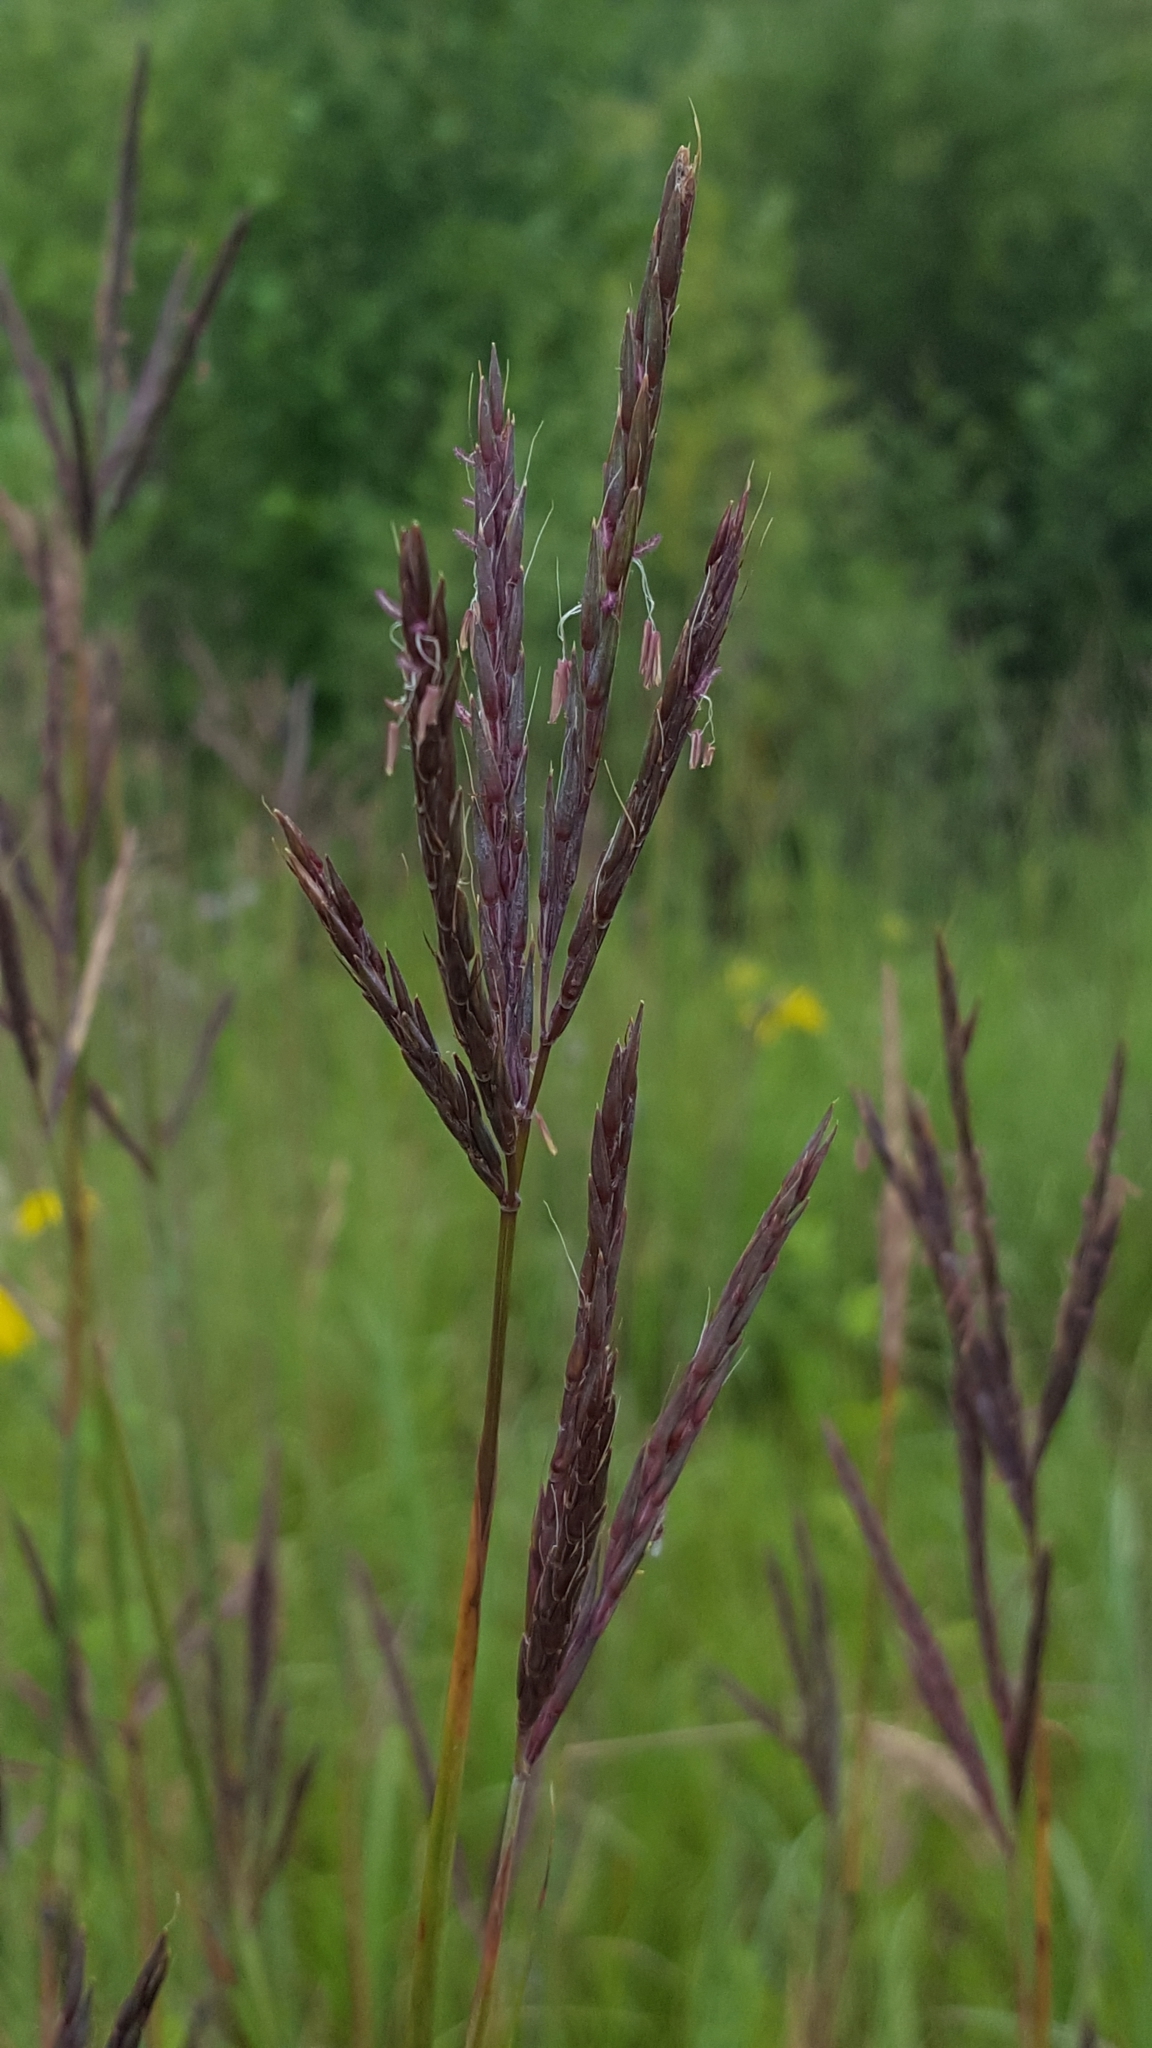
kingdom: Plantae
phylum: Tracheophyta
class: Liliopsida
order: Poales
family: Poaceae
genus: Andropogon
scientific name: Andropogon gerardi
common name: Big bluestem
